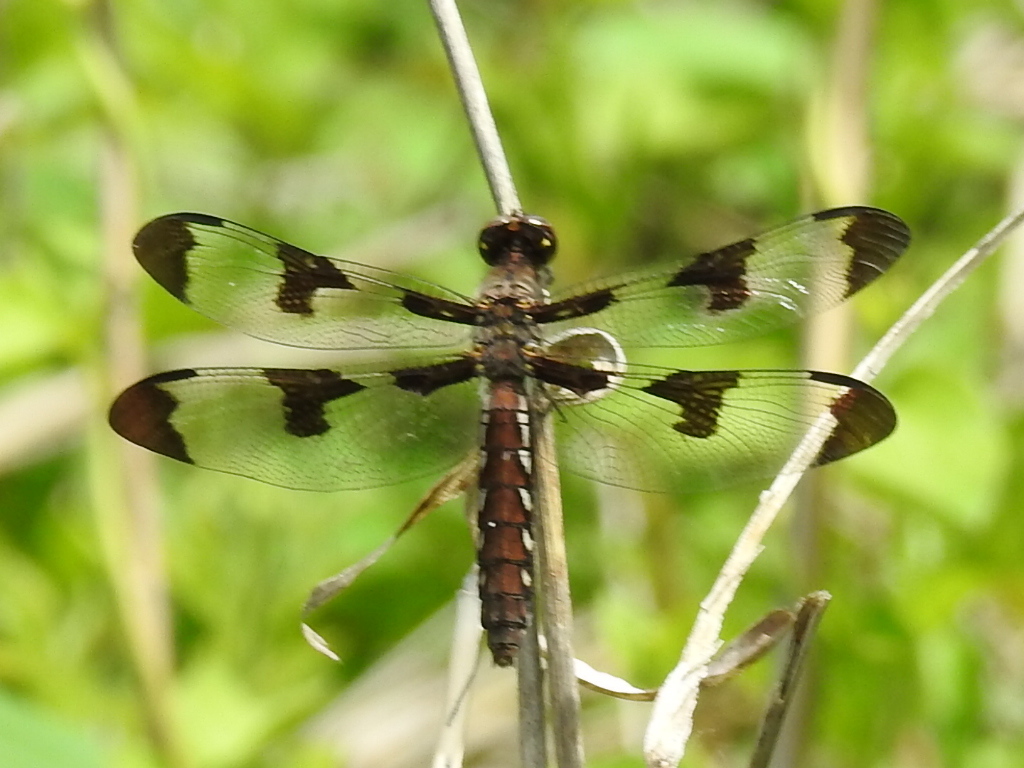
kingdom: Animalia
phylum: Arthropoda
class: Insecta
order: Odonata
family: Libellulidae
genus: Plathemis
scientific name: Plathemis lydia
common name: Common whitetail
